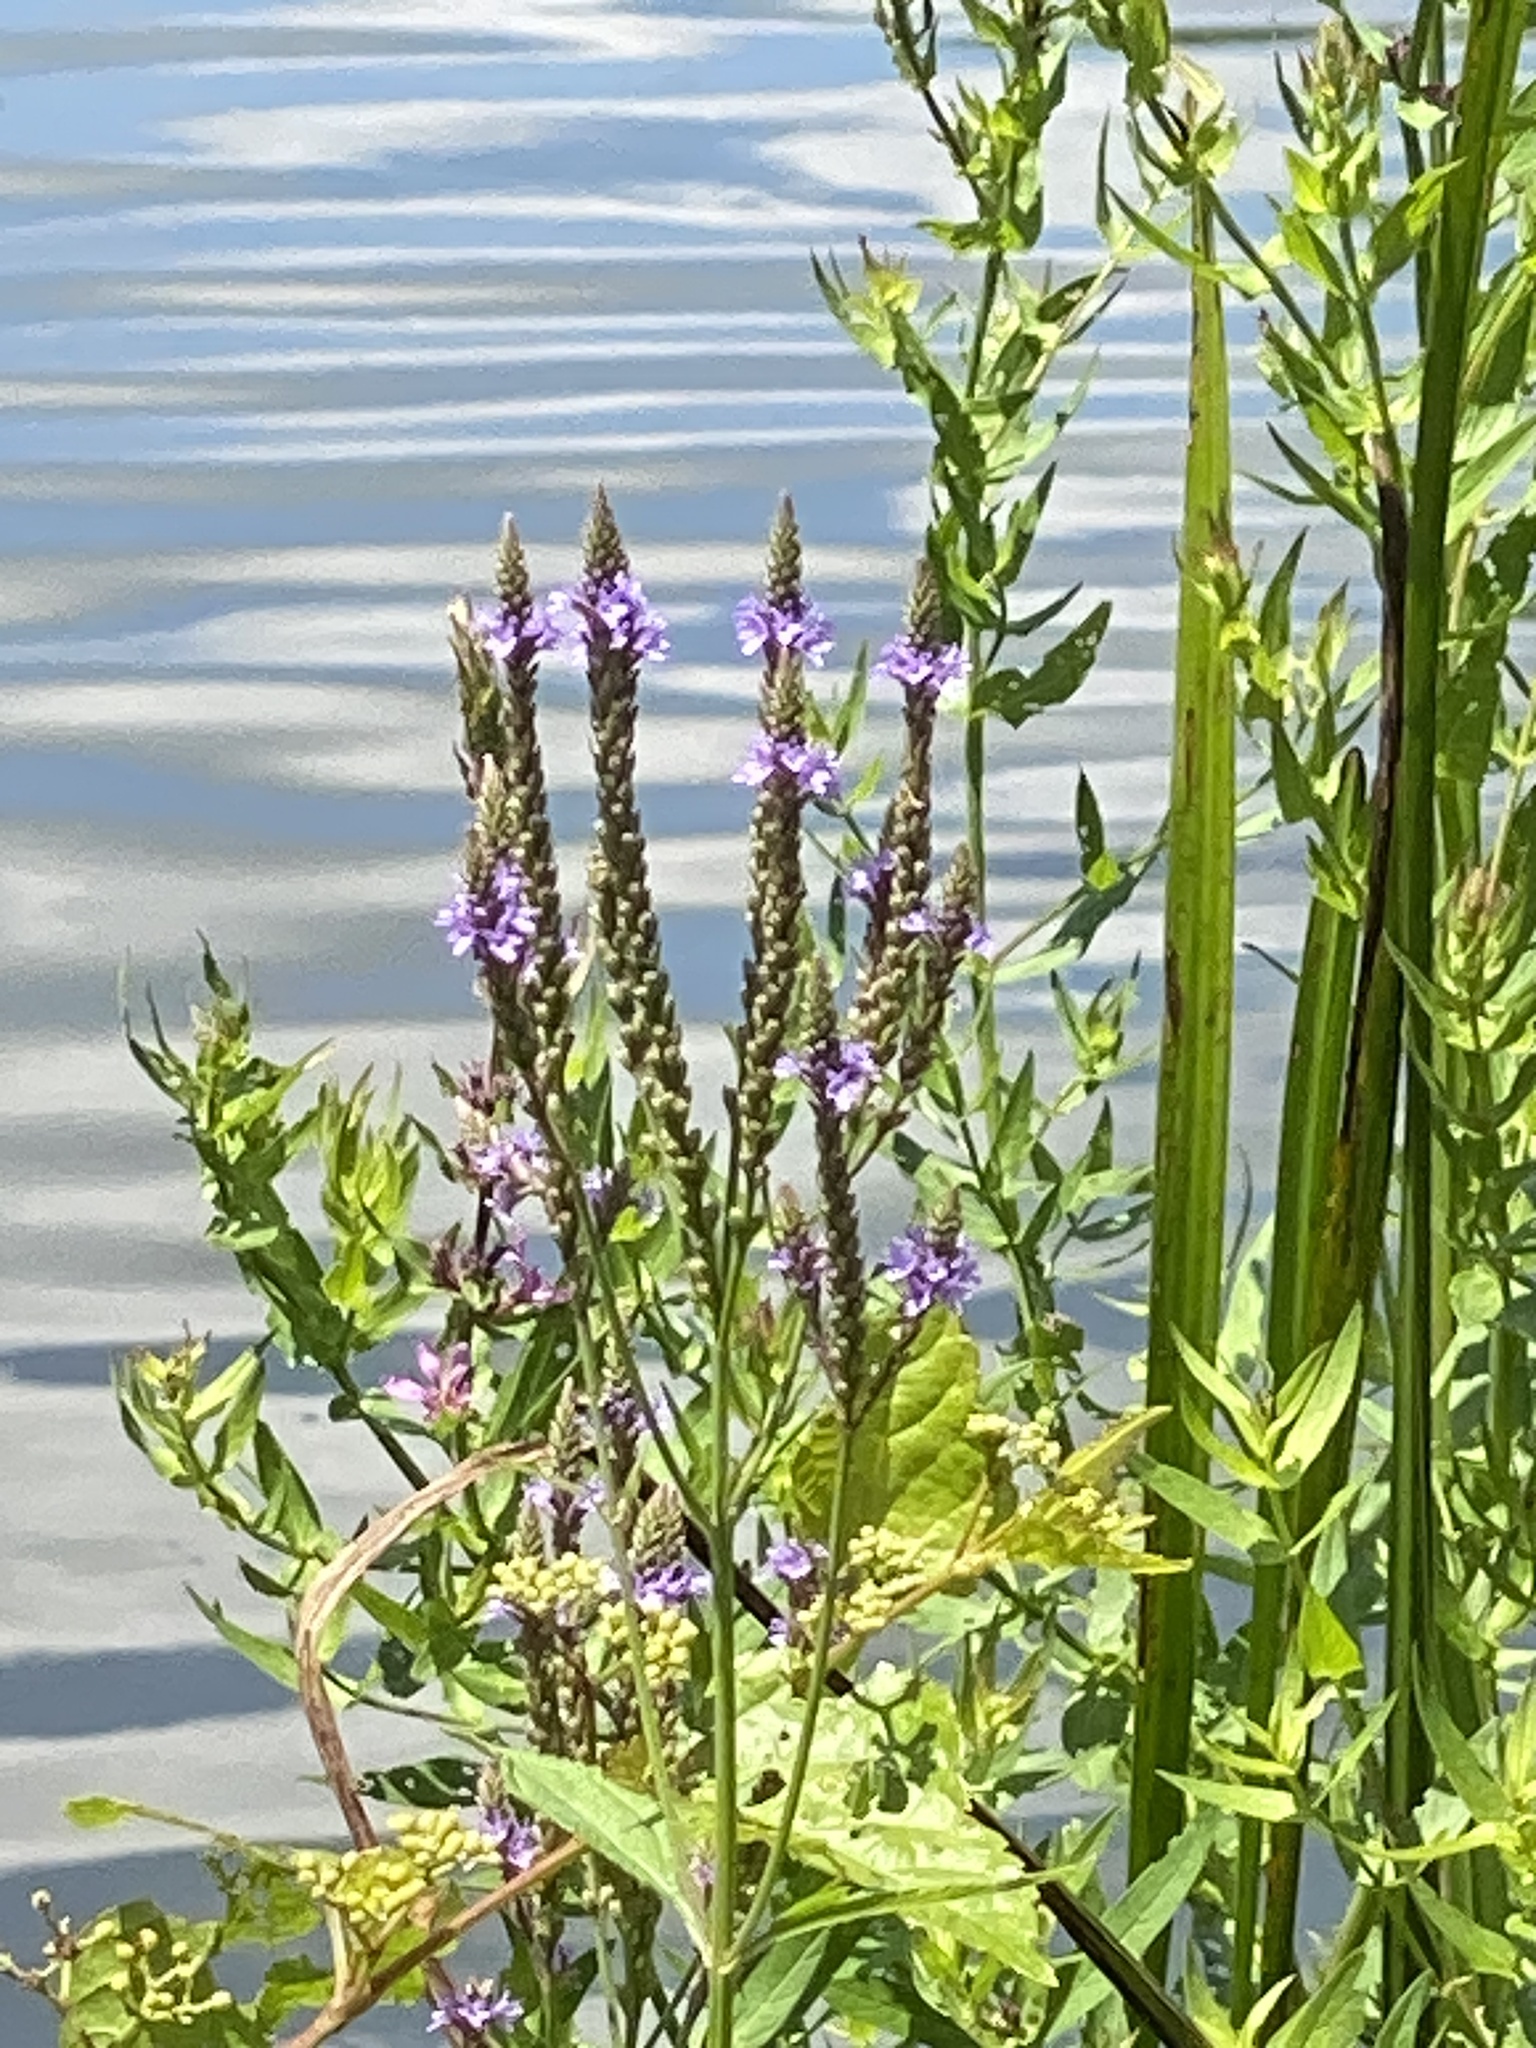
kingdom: Plantae
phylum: Tracheophyta
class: Magnoliopsida
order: Lamiales
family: Verbenaceae
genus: Verbena
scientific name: Verbena hastata
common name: American blue vervain
